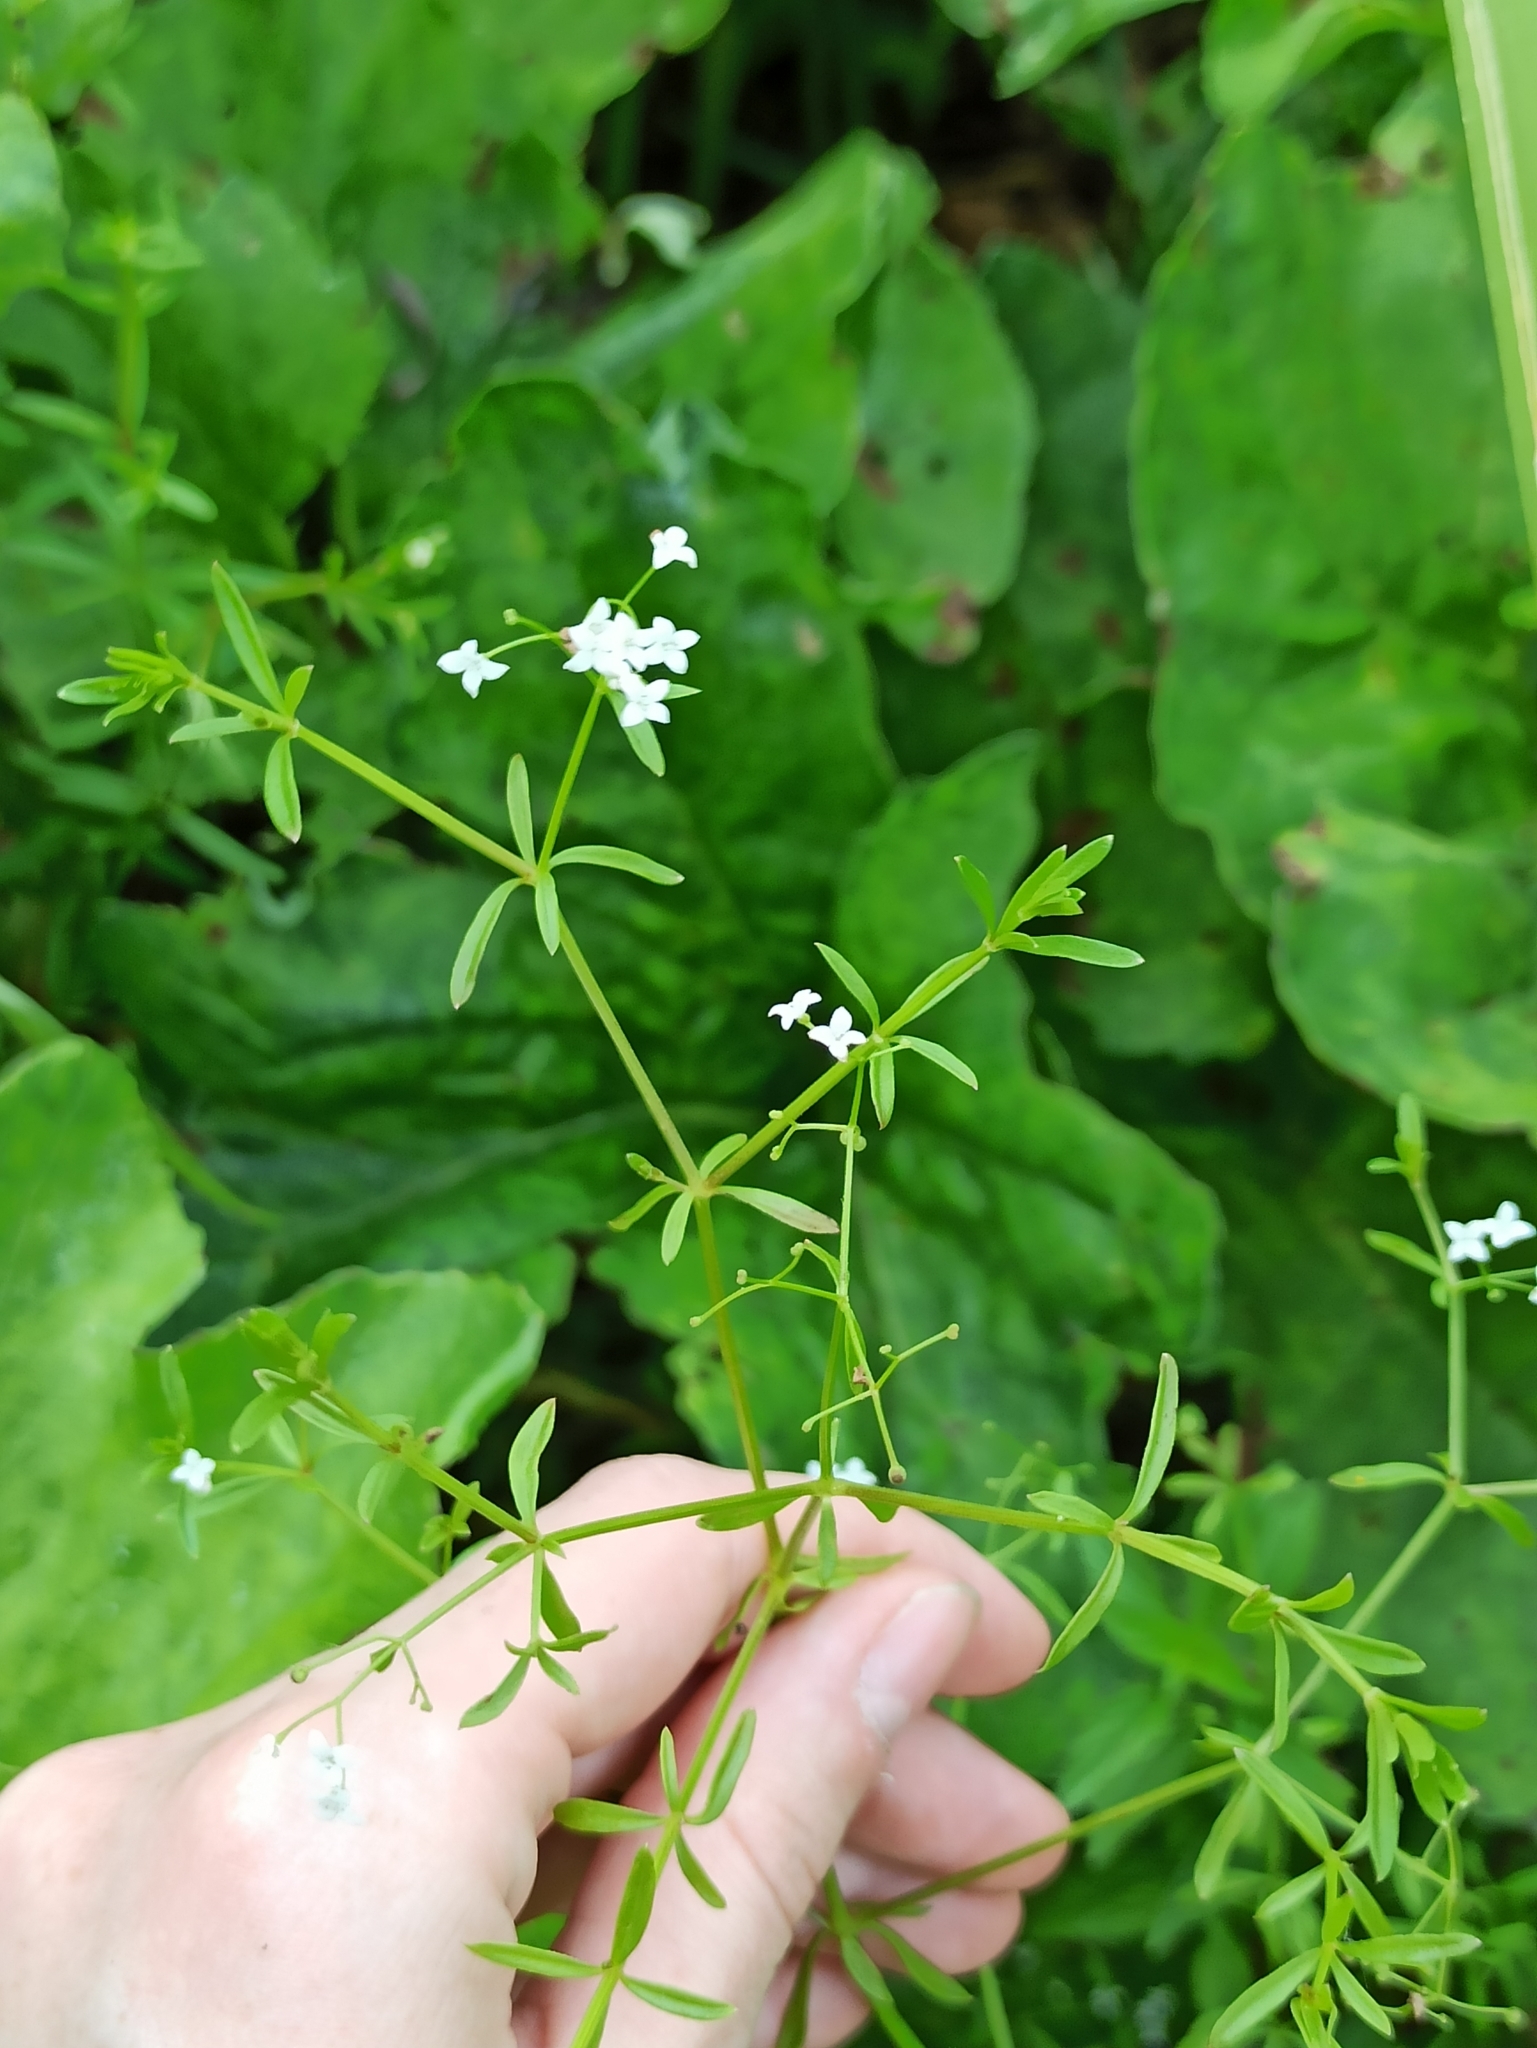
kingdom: Plantae
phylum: Tracheophyta
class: Magnoliopsida
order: Gentianales
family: Rubiaceae
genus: Galium
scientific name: Galium palustre
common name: Common marsh-bedstraw
